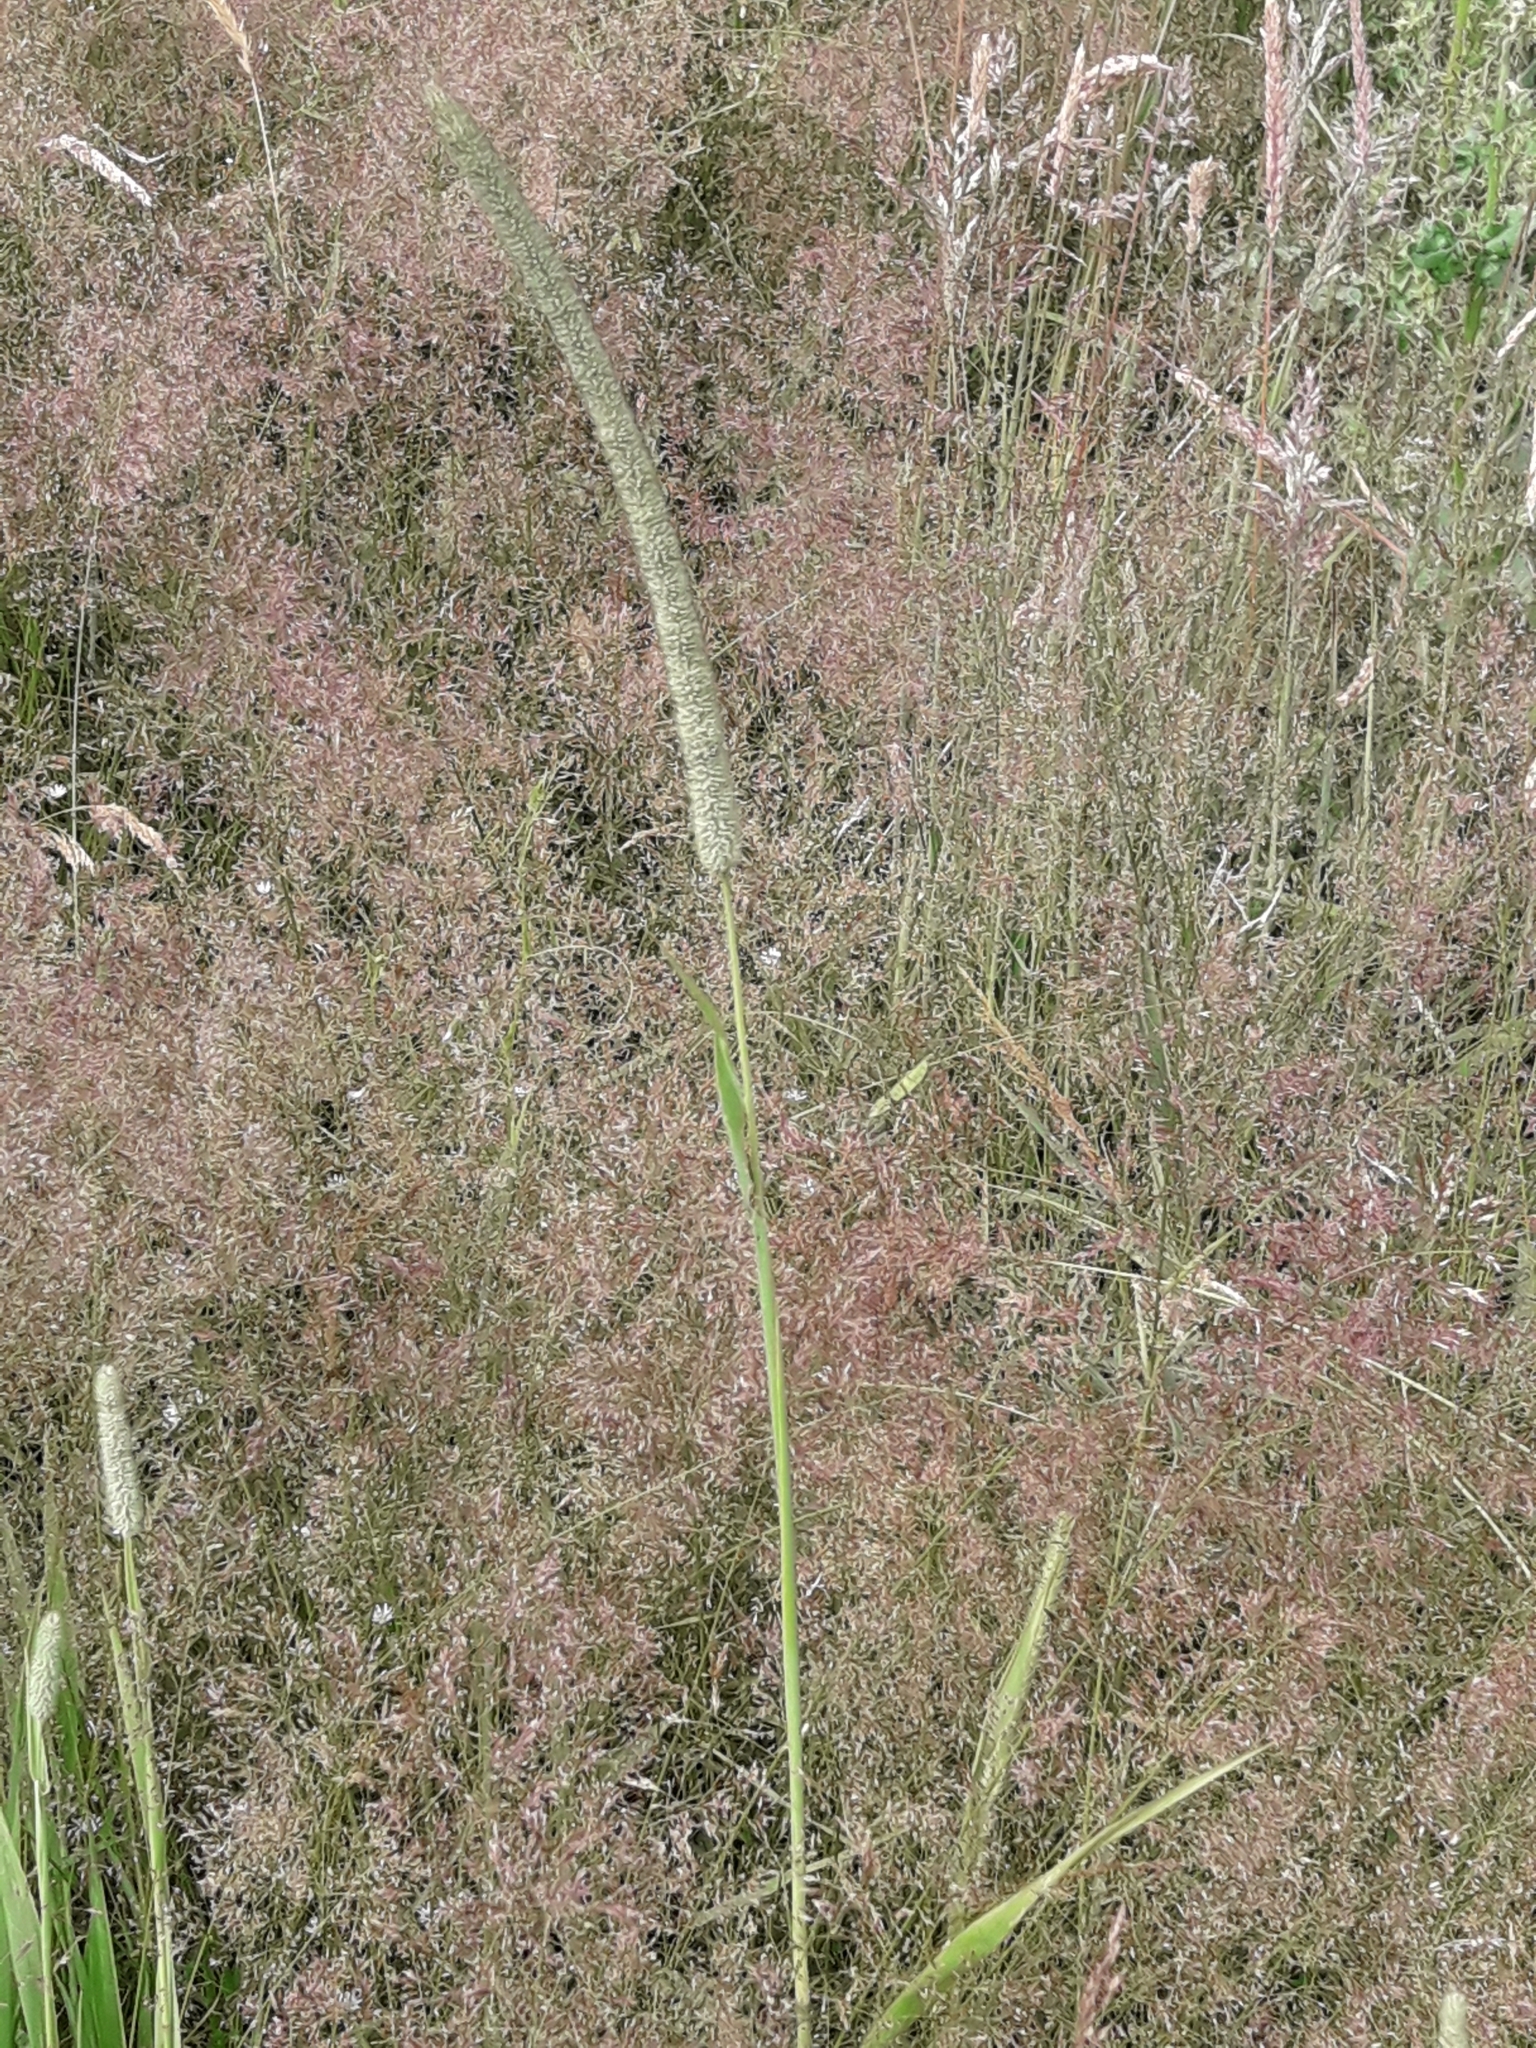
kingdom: Plantae
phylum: Tracheophyta
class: Liliopsida
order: Poales
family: Poaceae
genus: Phleum
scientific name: Phleum pratense
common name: Timothy grass
